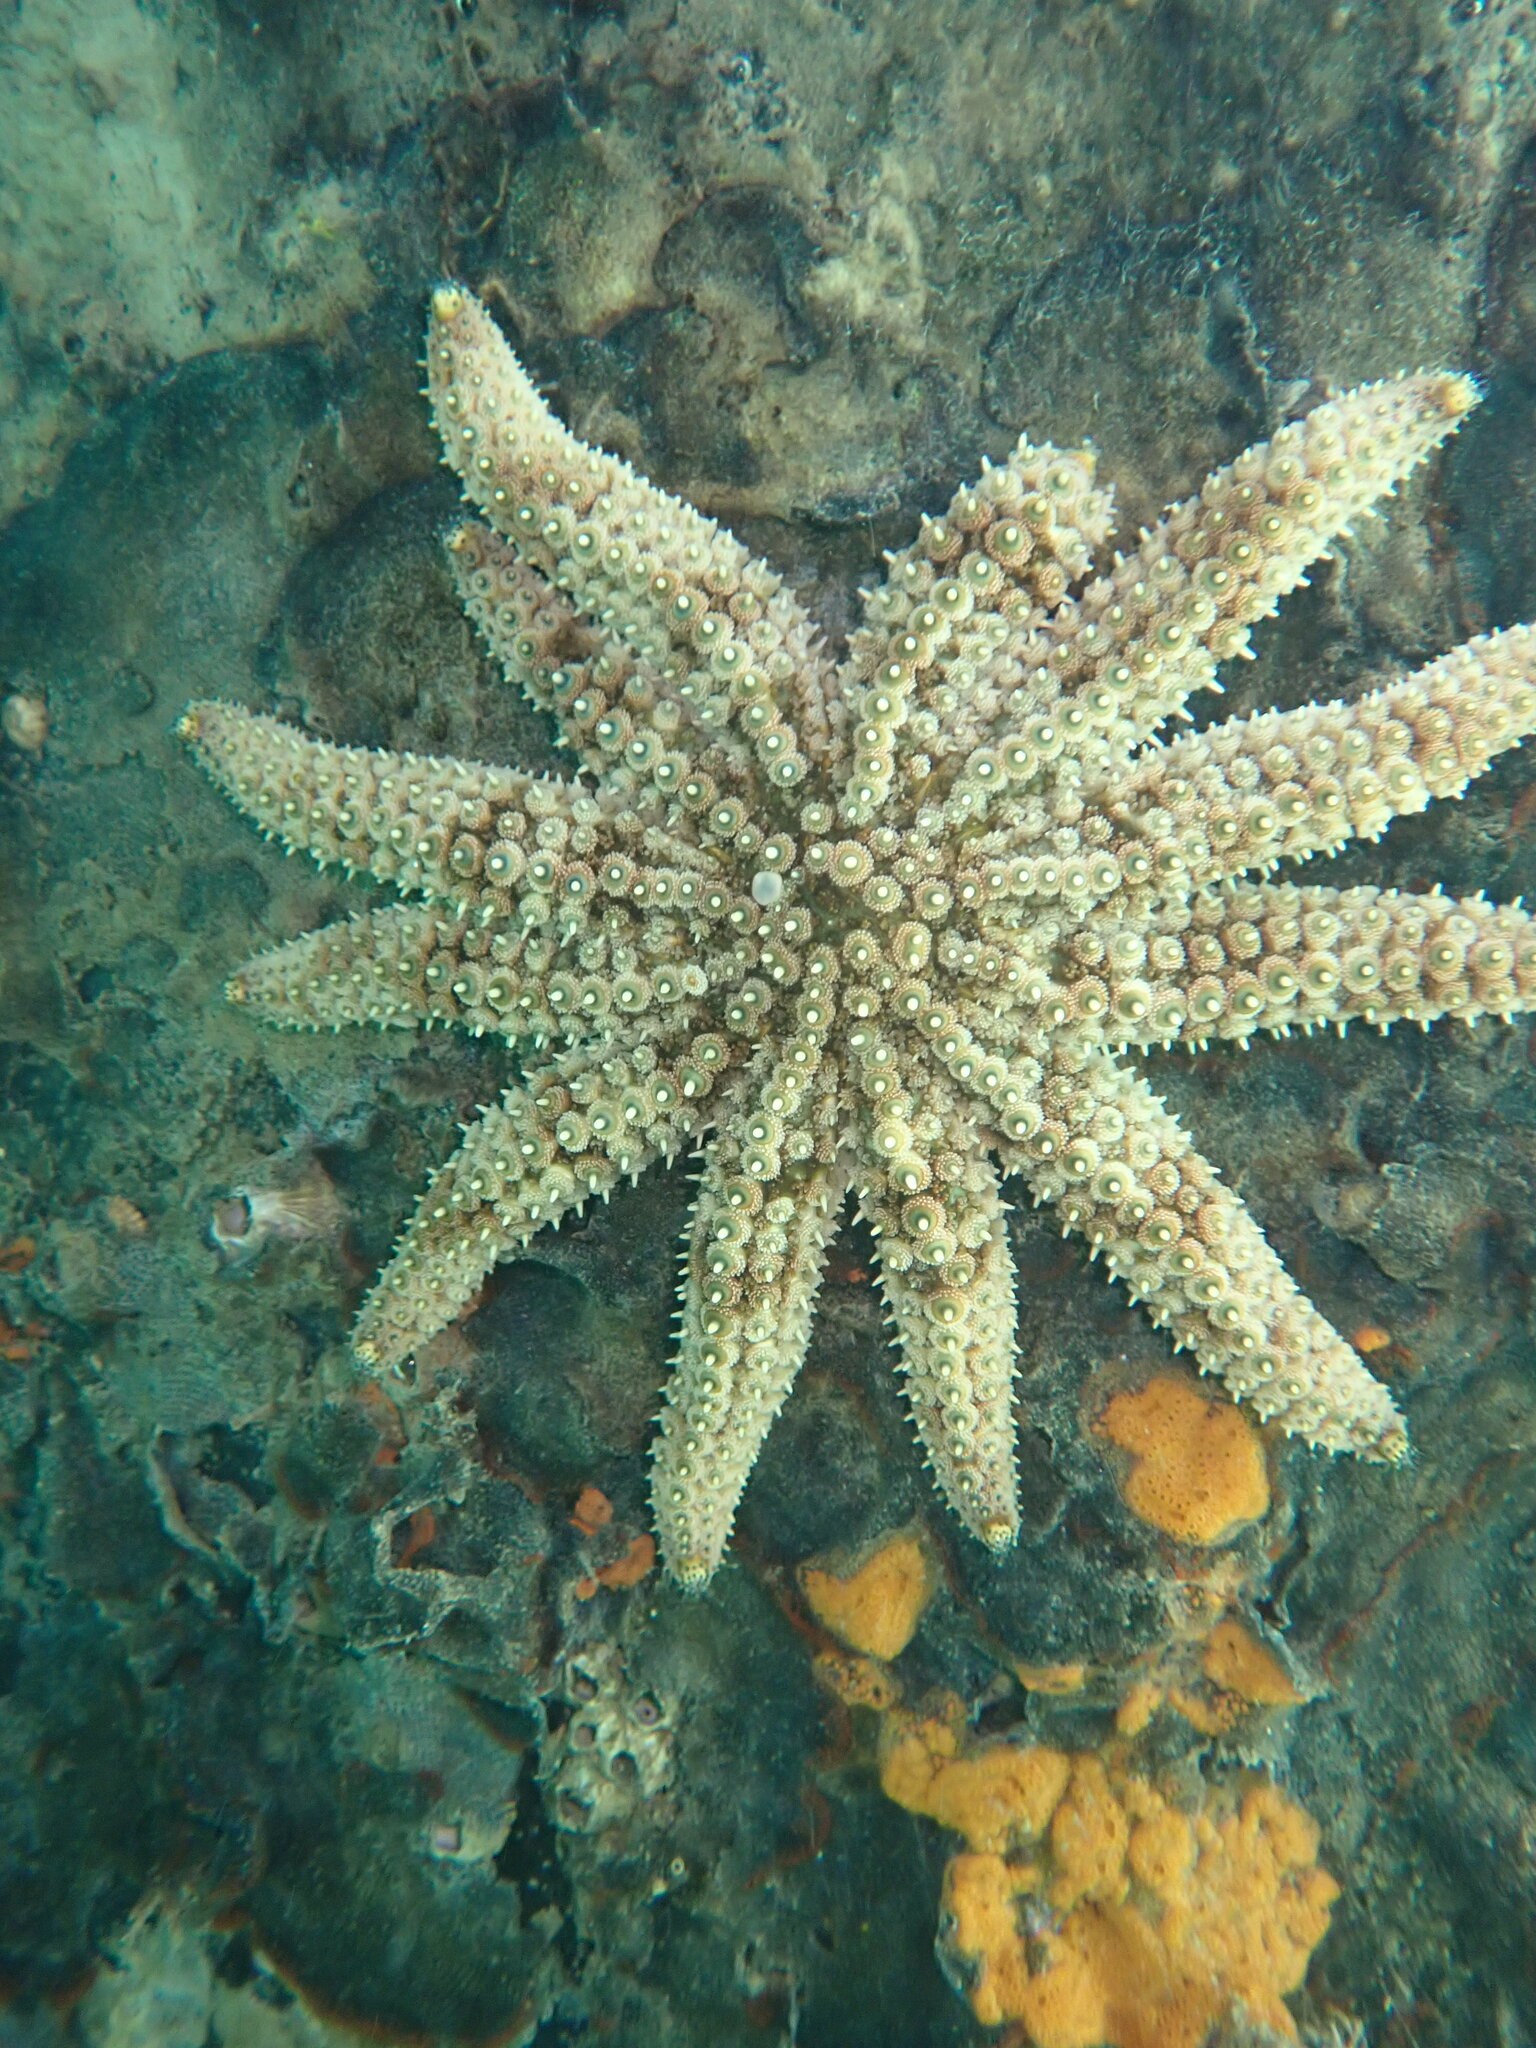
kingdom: Animalia
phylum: Echinodermata
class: Asteroidea
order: Forcipulatida
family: Asteriidae
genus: Coscinasterias
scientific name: Coscinasterias muricata
